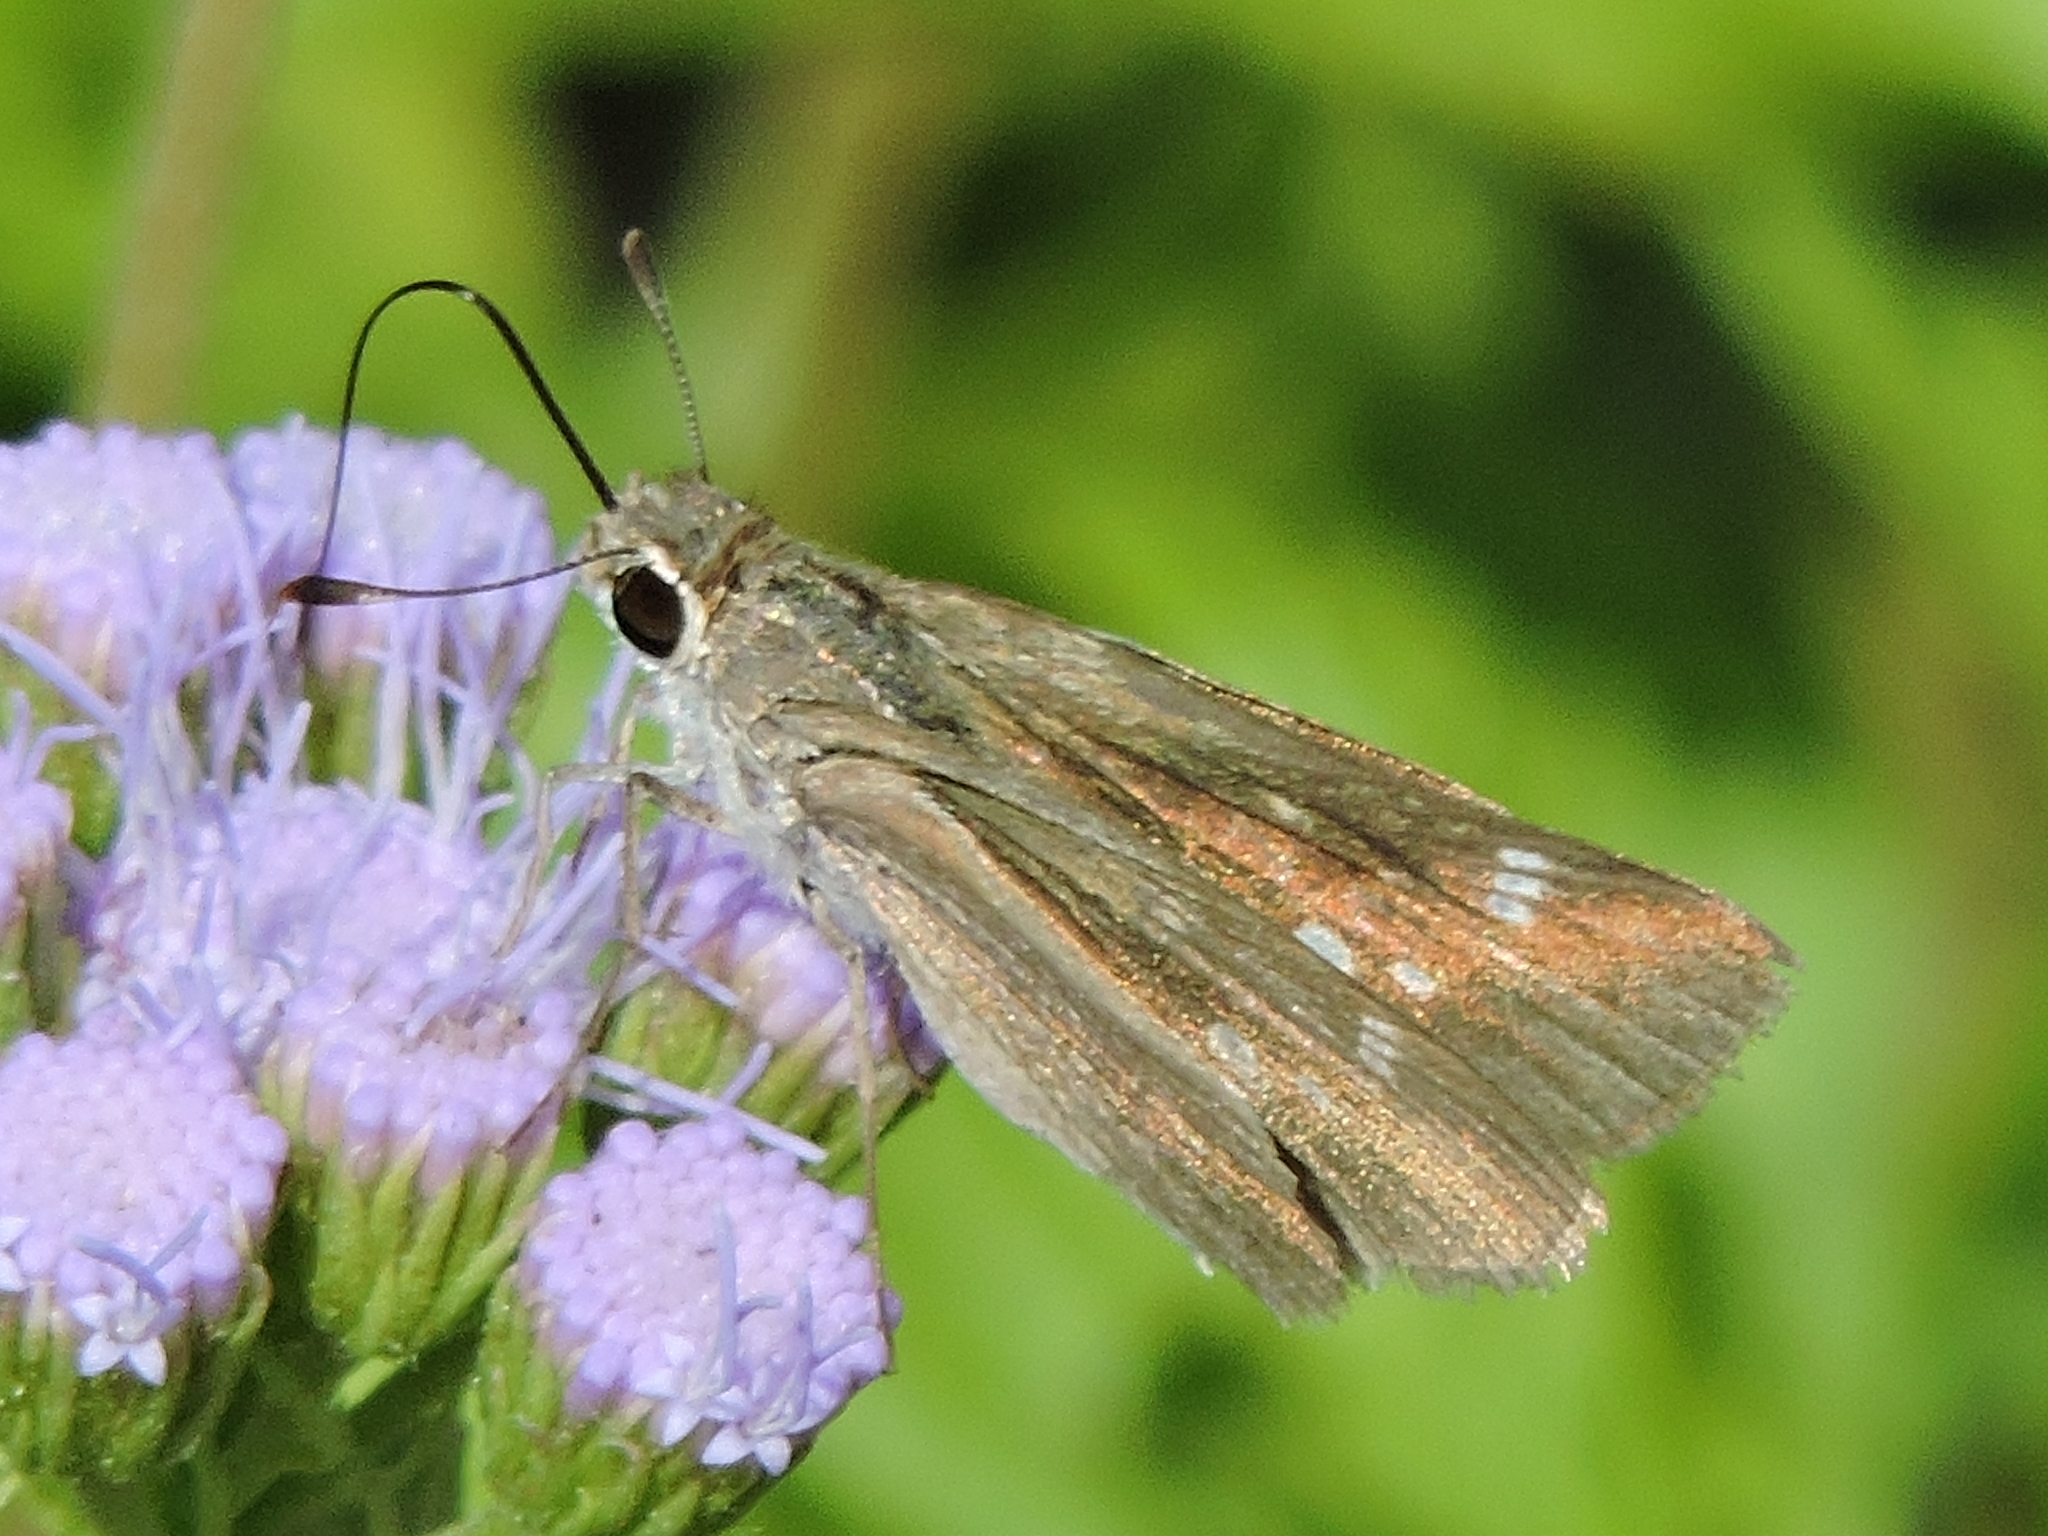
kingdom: Animalia
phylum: Arthropoda
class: Insecta
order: Lepidoptera
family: Hesperiidae
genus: Lerodea
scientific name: Lerodea eufala
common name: Eufala skipper
